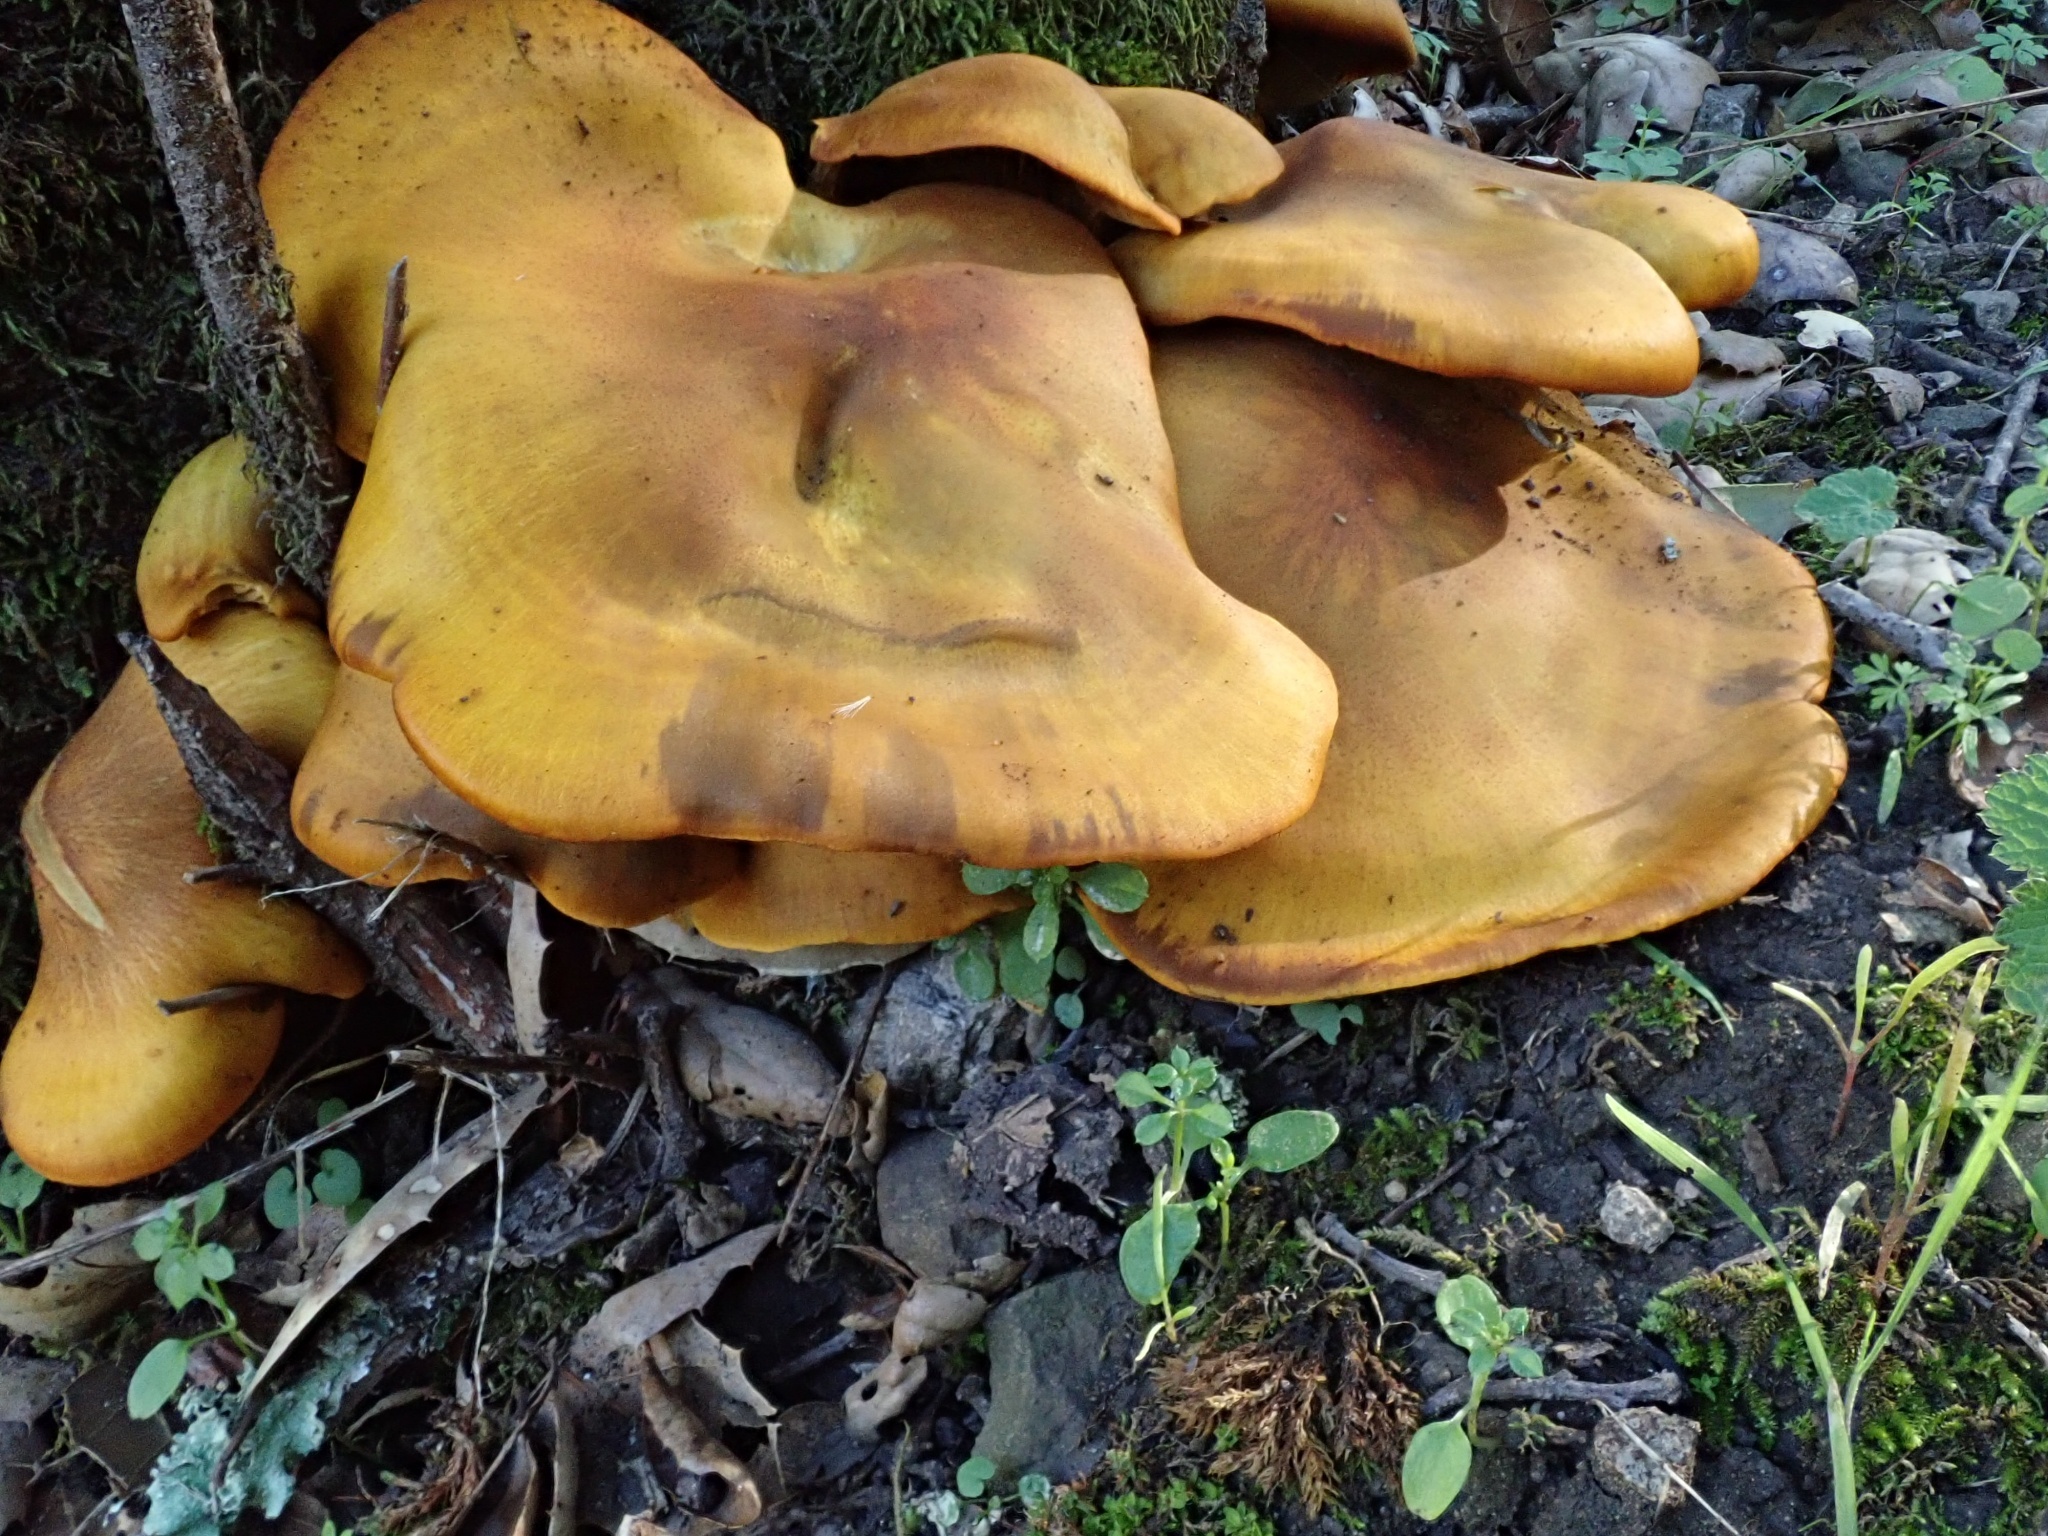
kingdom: Fungi
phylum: Basidiomycota
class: Agaricomycetes
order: Agaricales
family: Omphalotaceae
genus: Omphalotus
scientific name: Omphalotus olivascens
